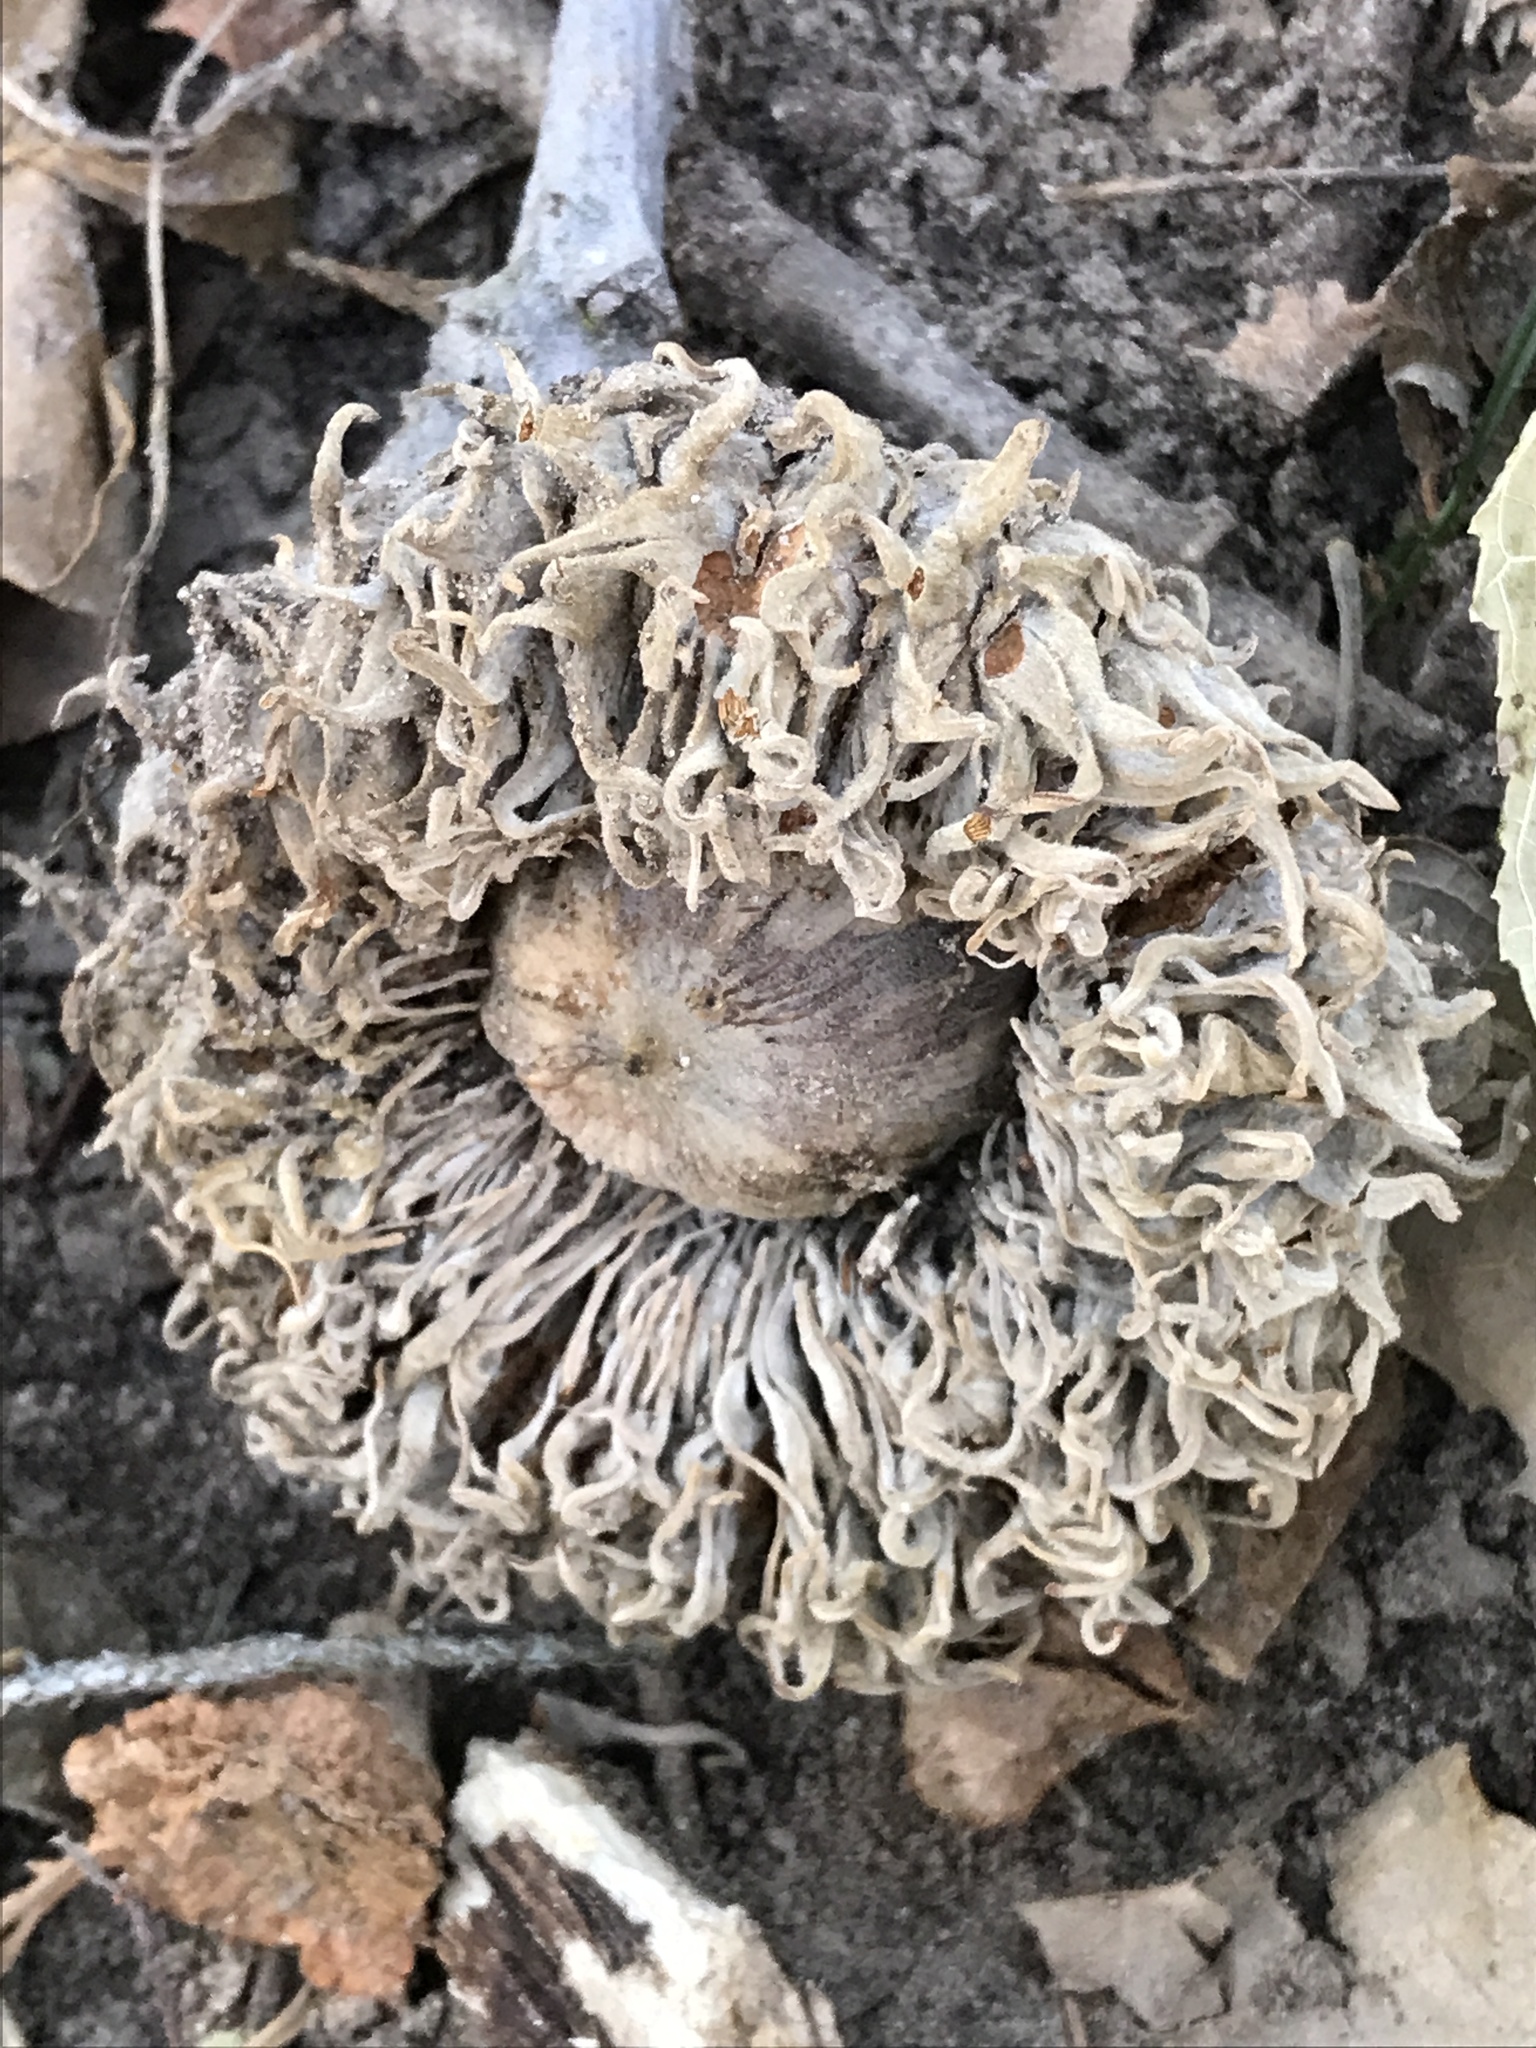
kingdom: Plantae
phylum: Tracheophyta
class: Magnoliopsida
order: Fagales
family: Fagaceae
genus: Quercus
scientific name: Quercus macrocarpa
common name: Bur oak
